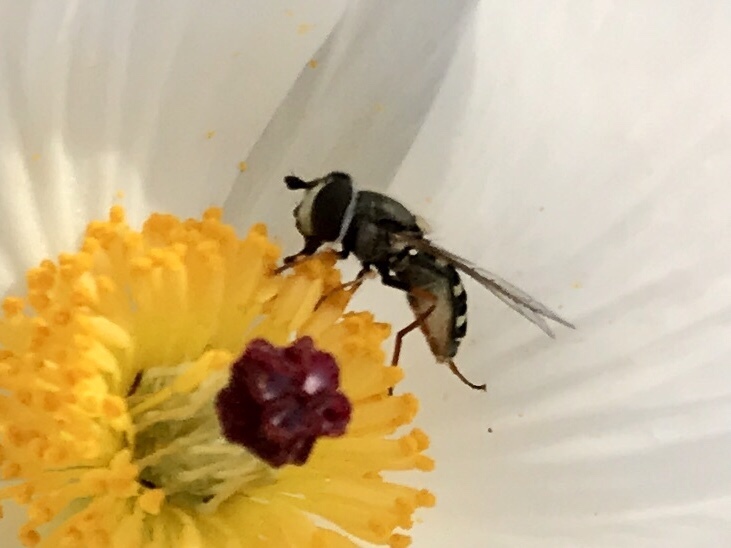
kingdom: Animalia
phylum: Arthropoda
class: Insecta
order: Diptera
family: Syrphidae
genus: Eupeodes
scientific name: Eupeodes volucris
